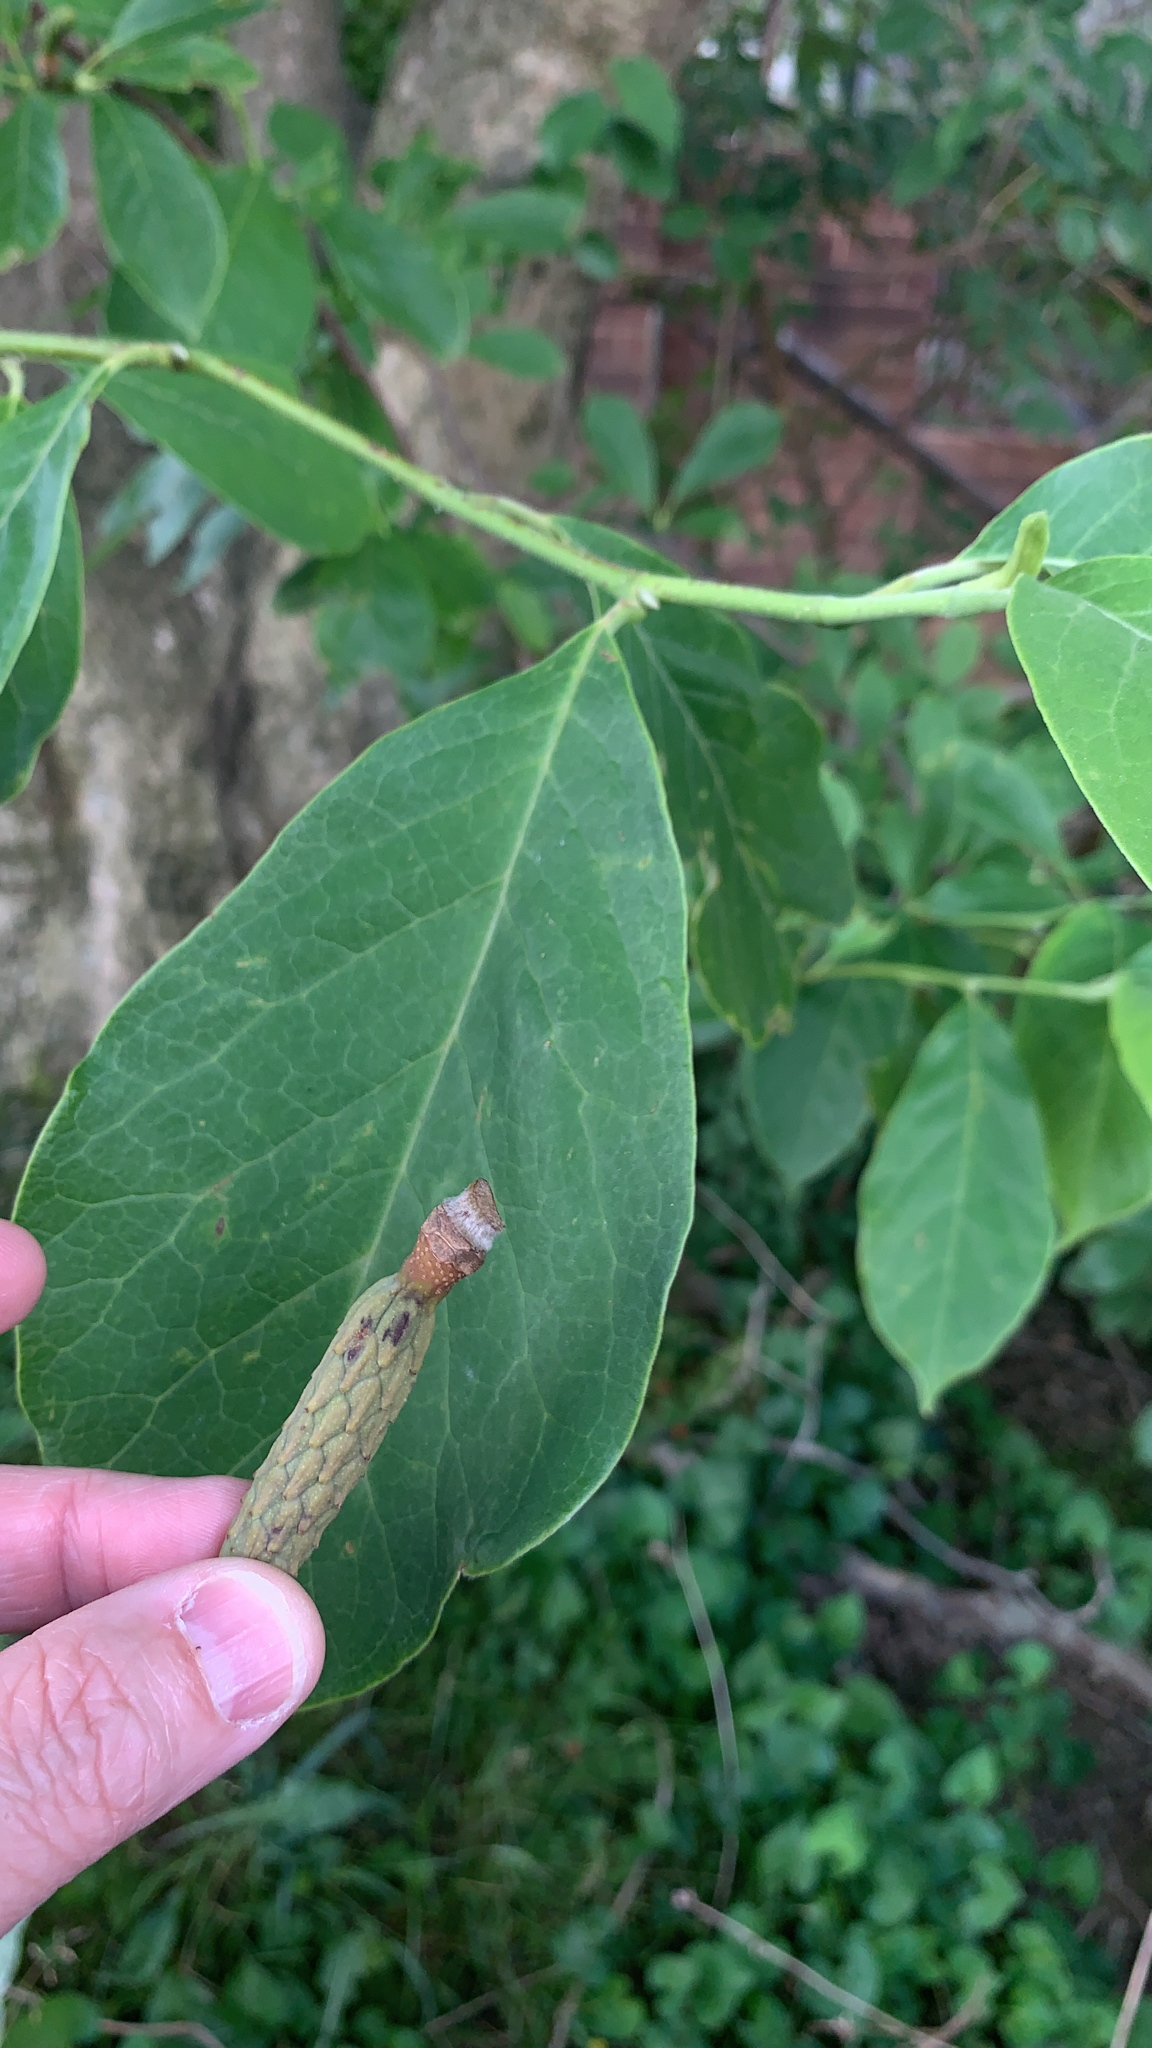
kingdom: Plantae
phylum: Tracheophyta
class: Magnoliopsida
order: Magnoliales
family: Magnoliaceae
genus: Magnolia
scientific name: Magnolia acuminata
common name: Cucumber magnolia
